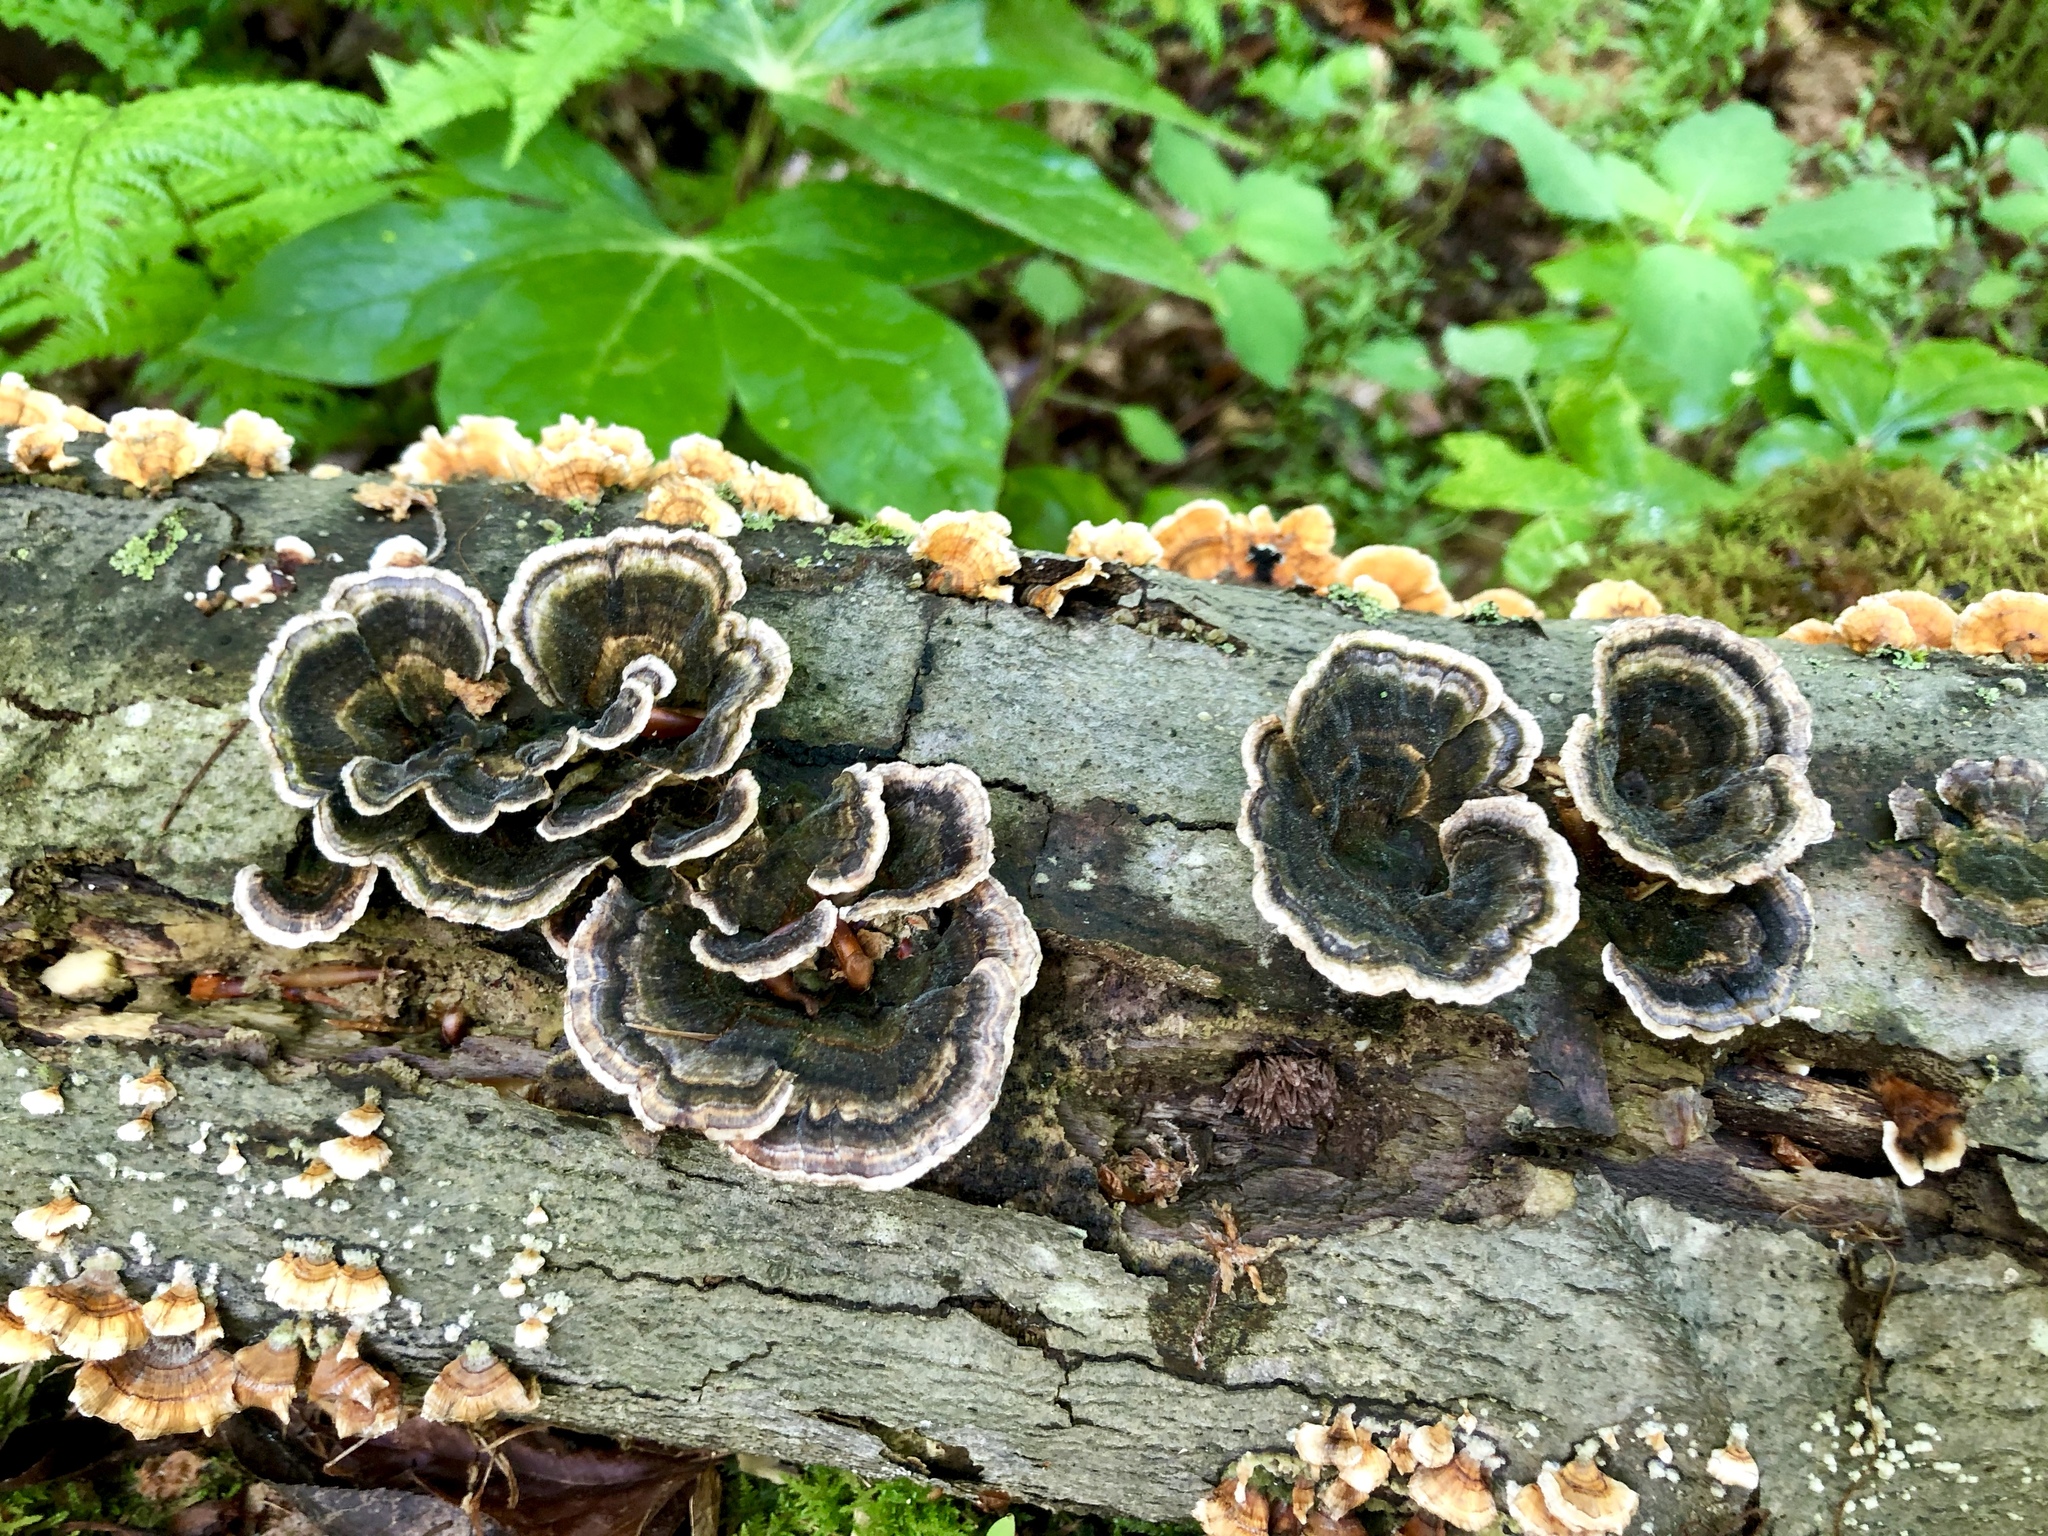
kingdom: Fungi
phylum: Basidiomycota
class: Agaricomycetes
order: Polyporales
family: Polyporaceae
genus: Trametes
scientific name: Trametes versicolor
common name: Turkeytail
